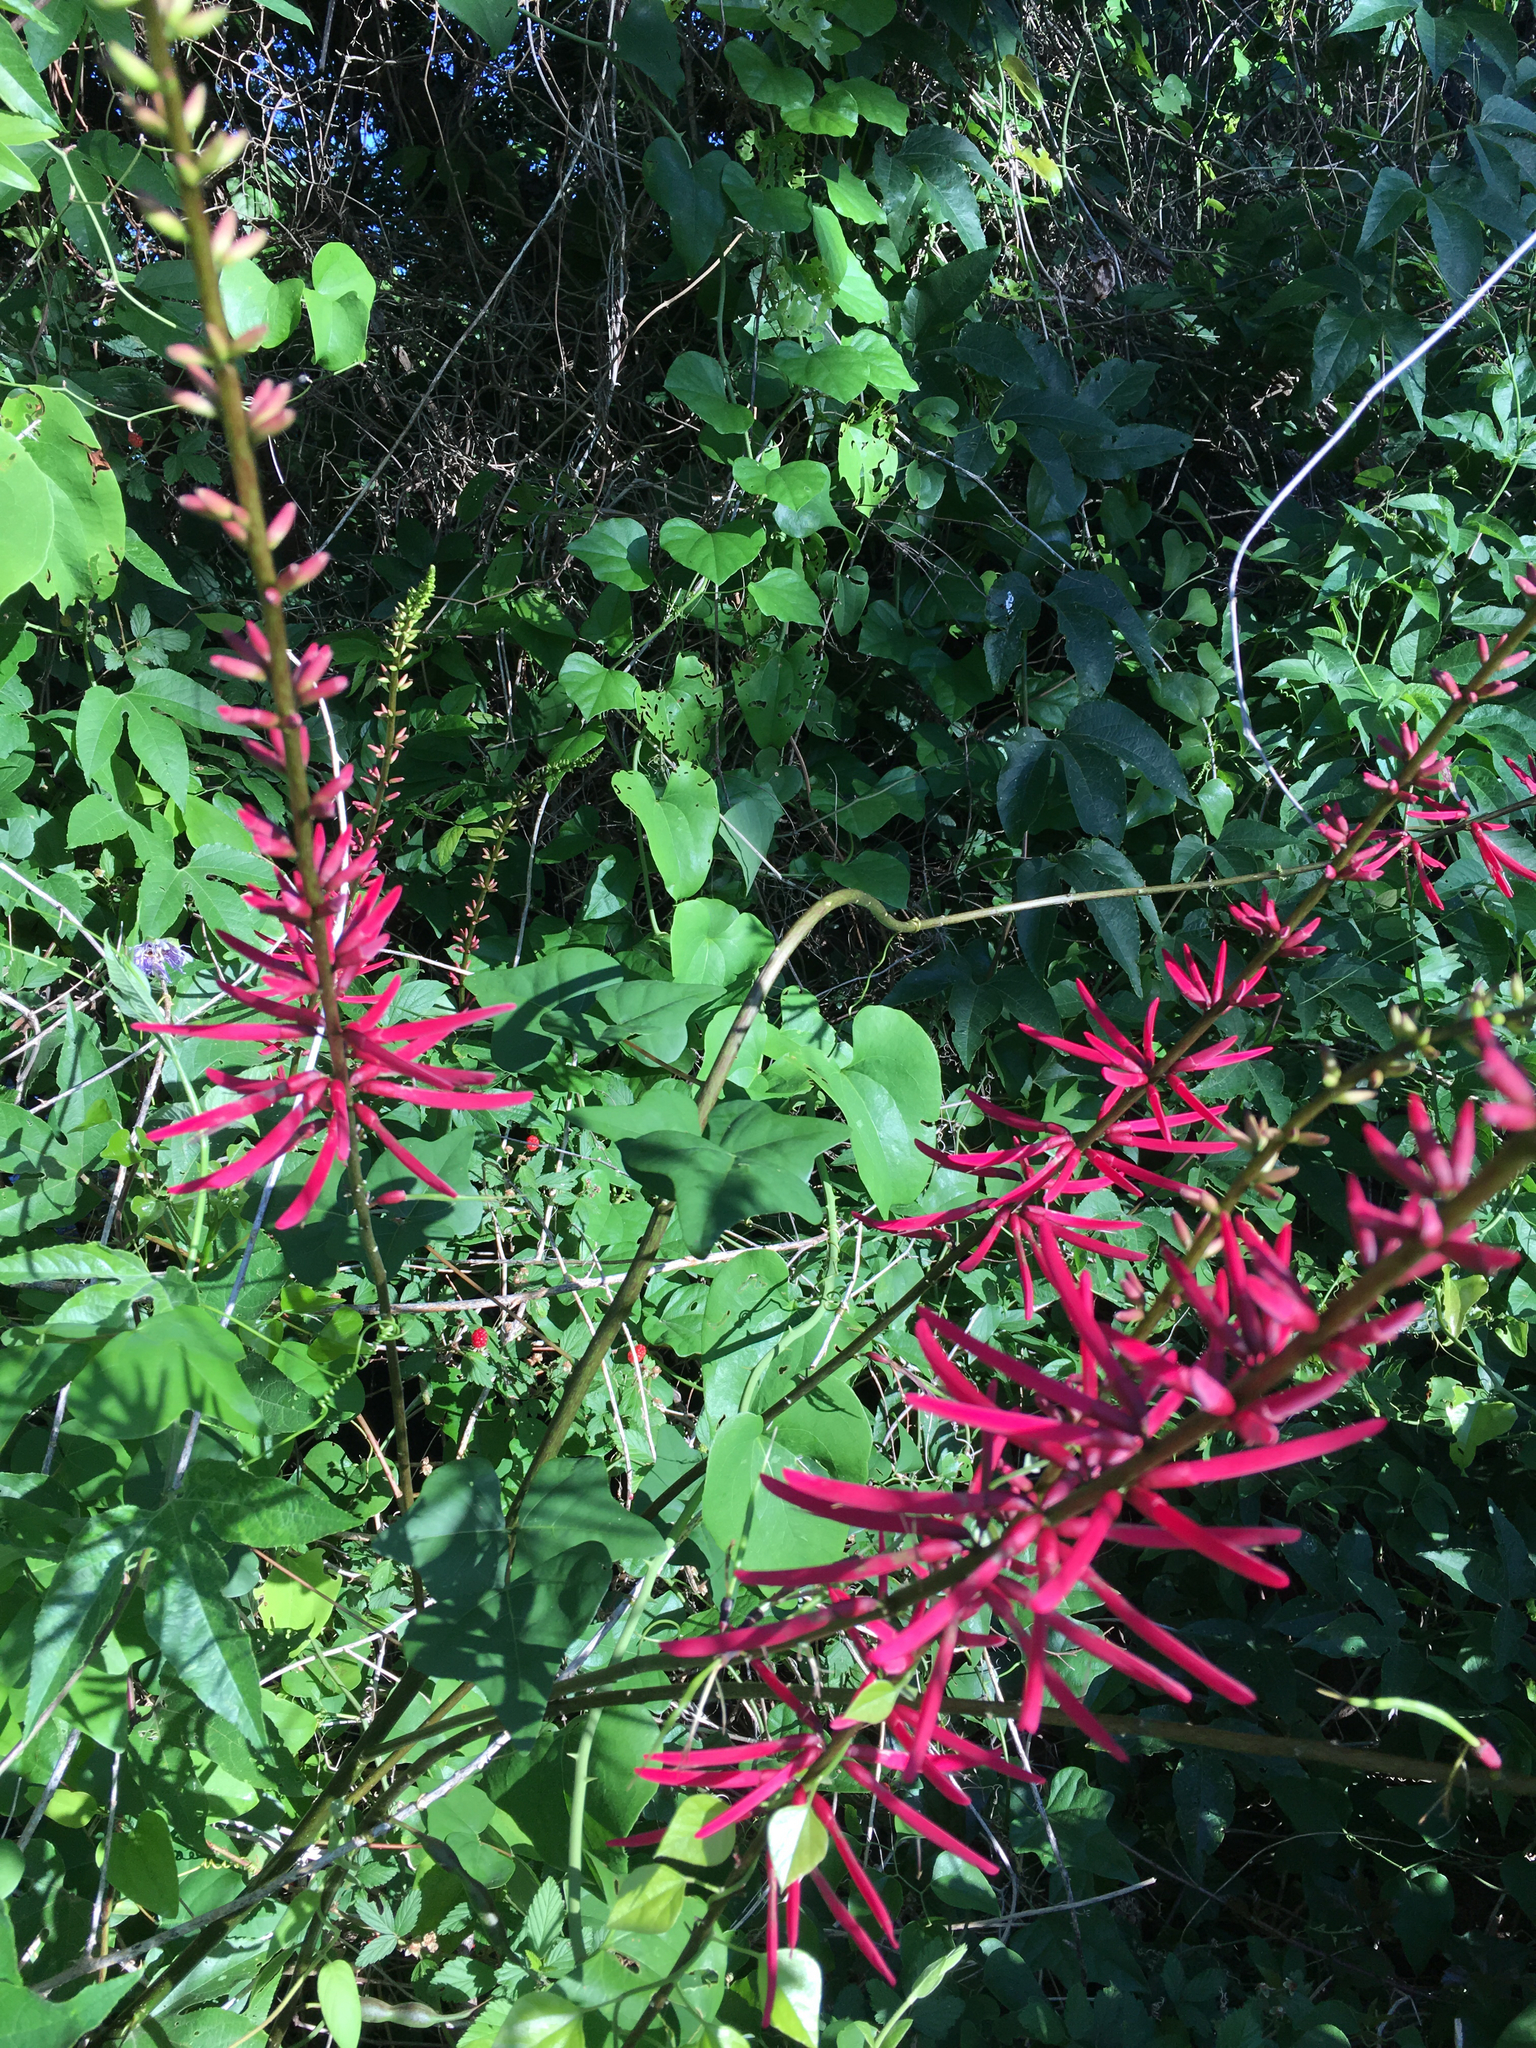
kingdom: Plantae
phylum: Tracheophyta
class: Magnoliopsida
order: Fabales
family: Fabaceae
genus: Erythrina
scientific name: Erythrina herbacea
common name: Coral-bean
